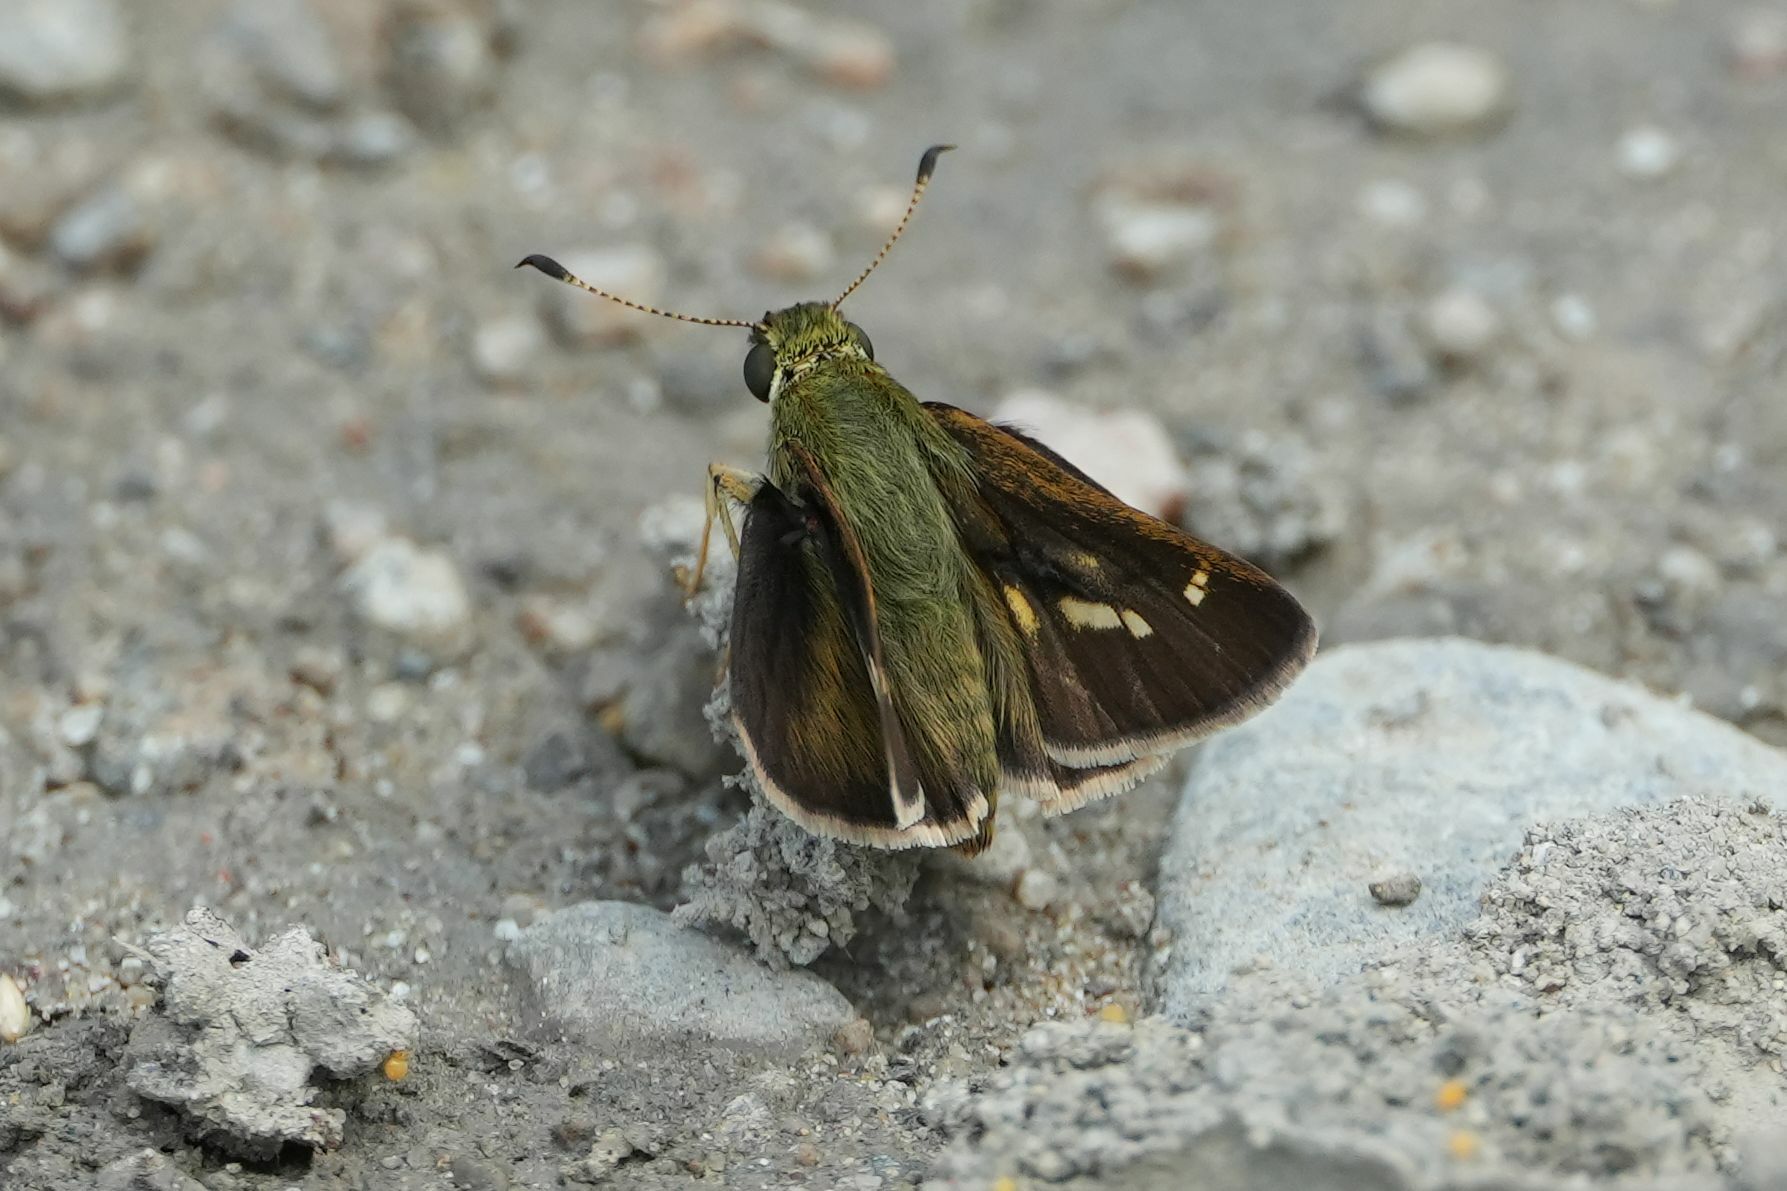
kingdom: Animalia
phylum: Arthropoda
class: Insecta
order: Lepidoptera
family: Hesperiidae
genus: Vernia
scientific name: Vernia verna
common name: Little glassywing
